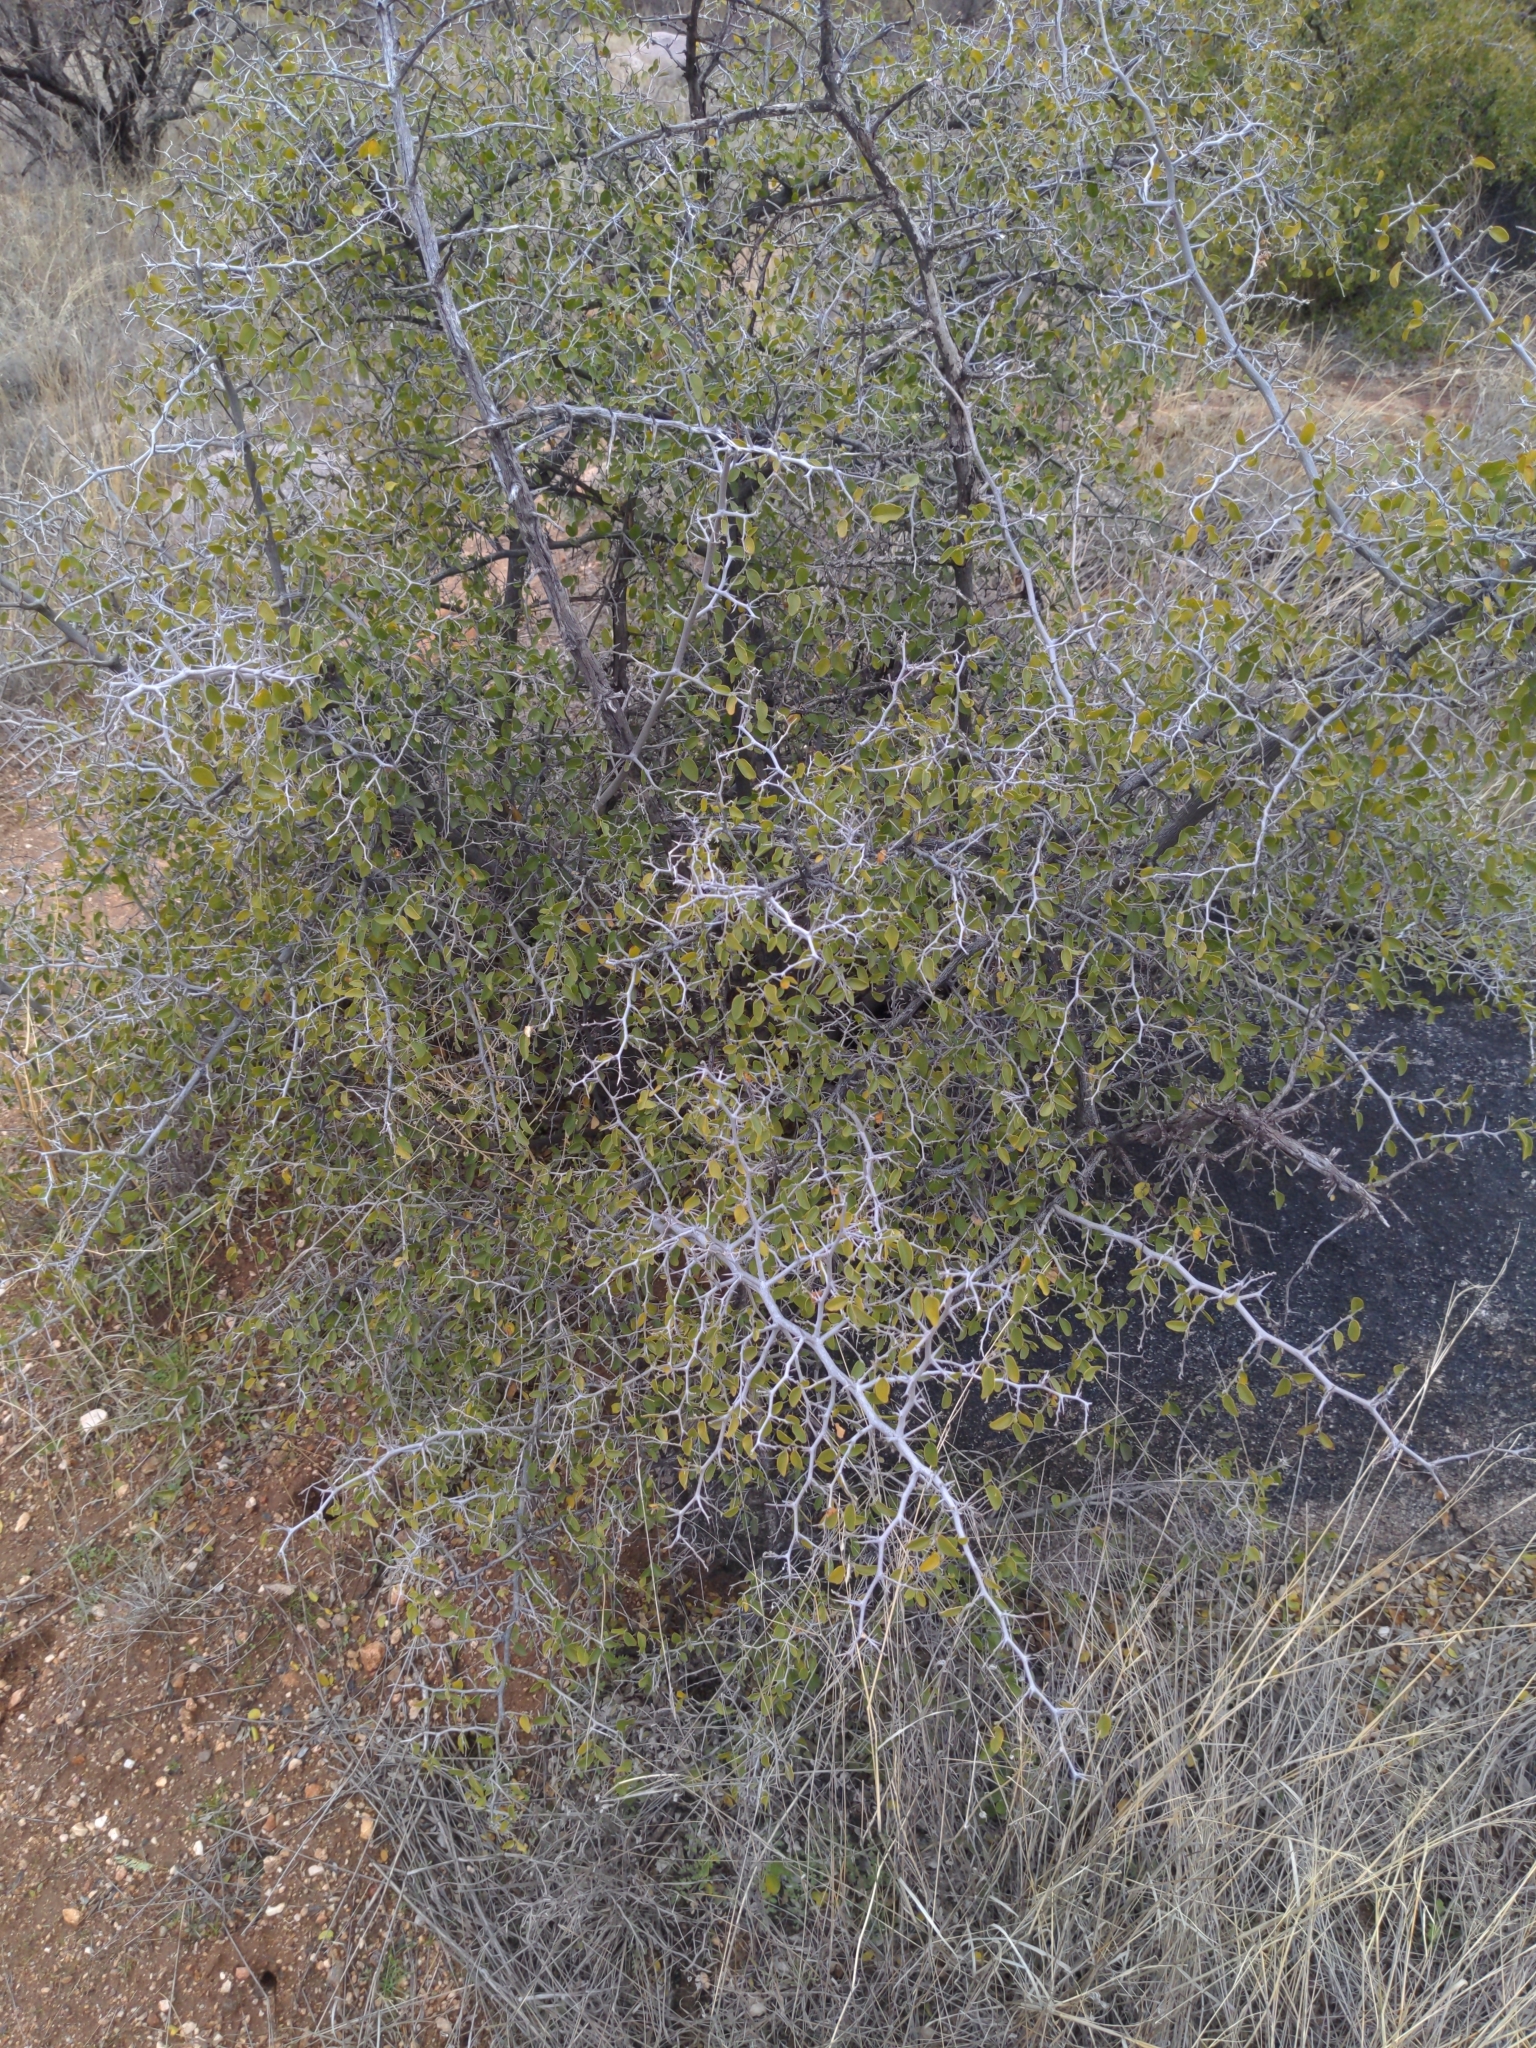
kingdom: Plantae
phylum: Tracheophyta
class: Magnoliopsida
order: Rosales
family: Cannabaceae
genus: Celtis
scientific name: Celtis pallida
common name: Desert hackberry
